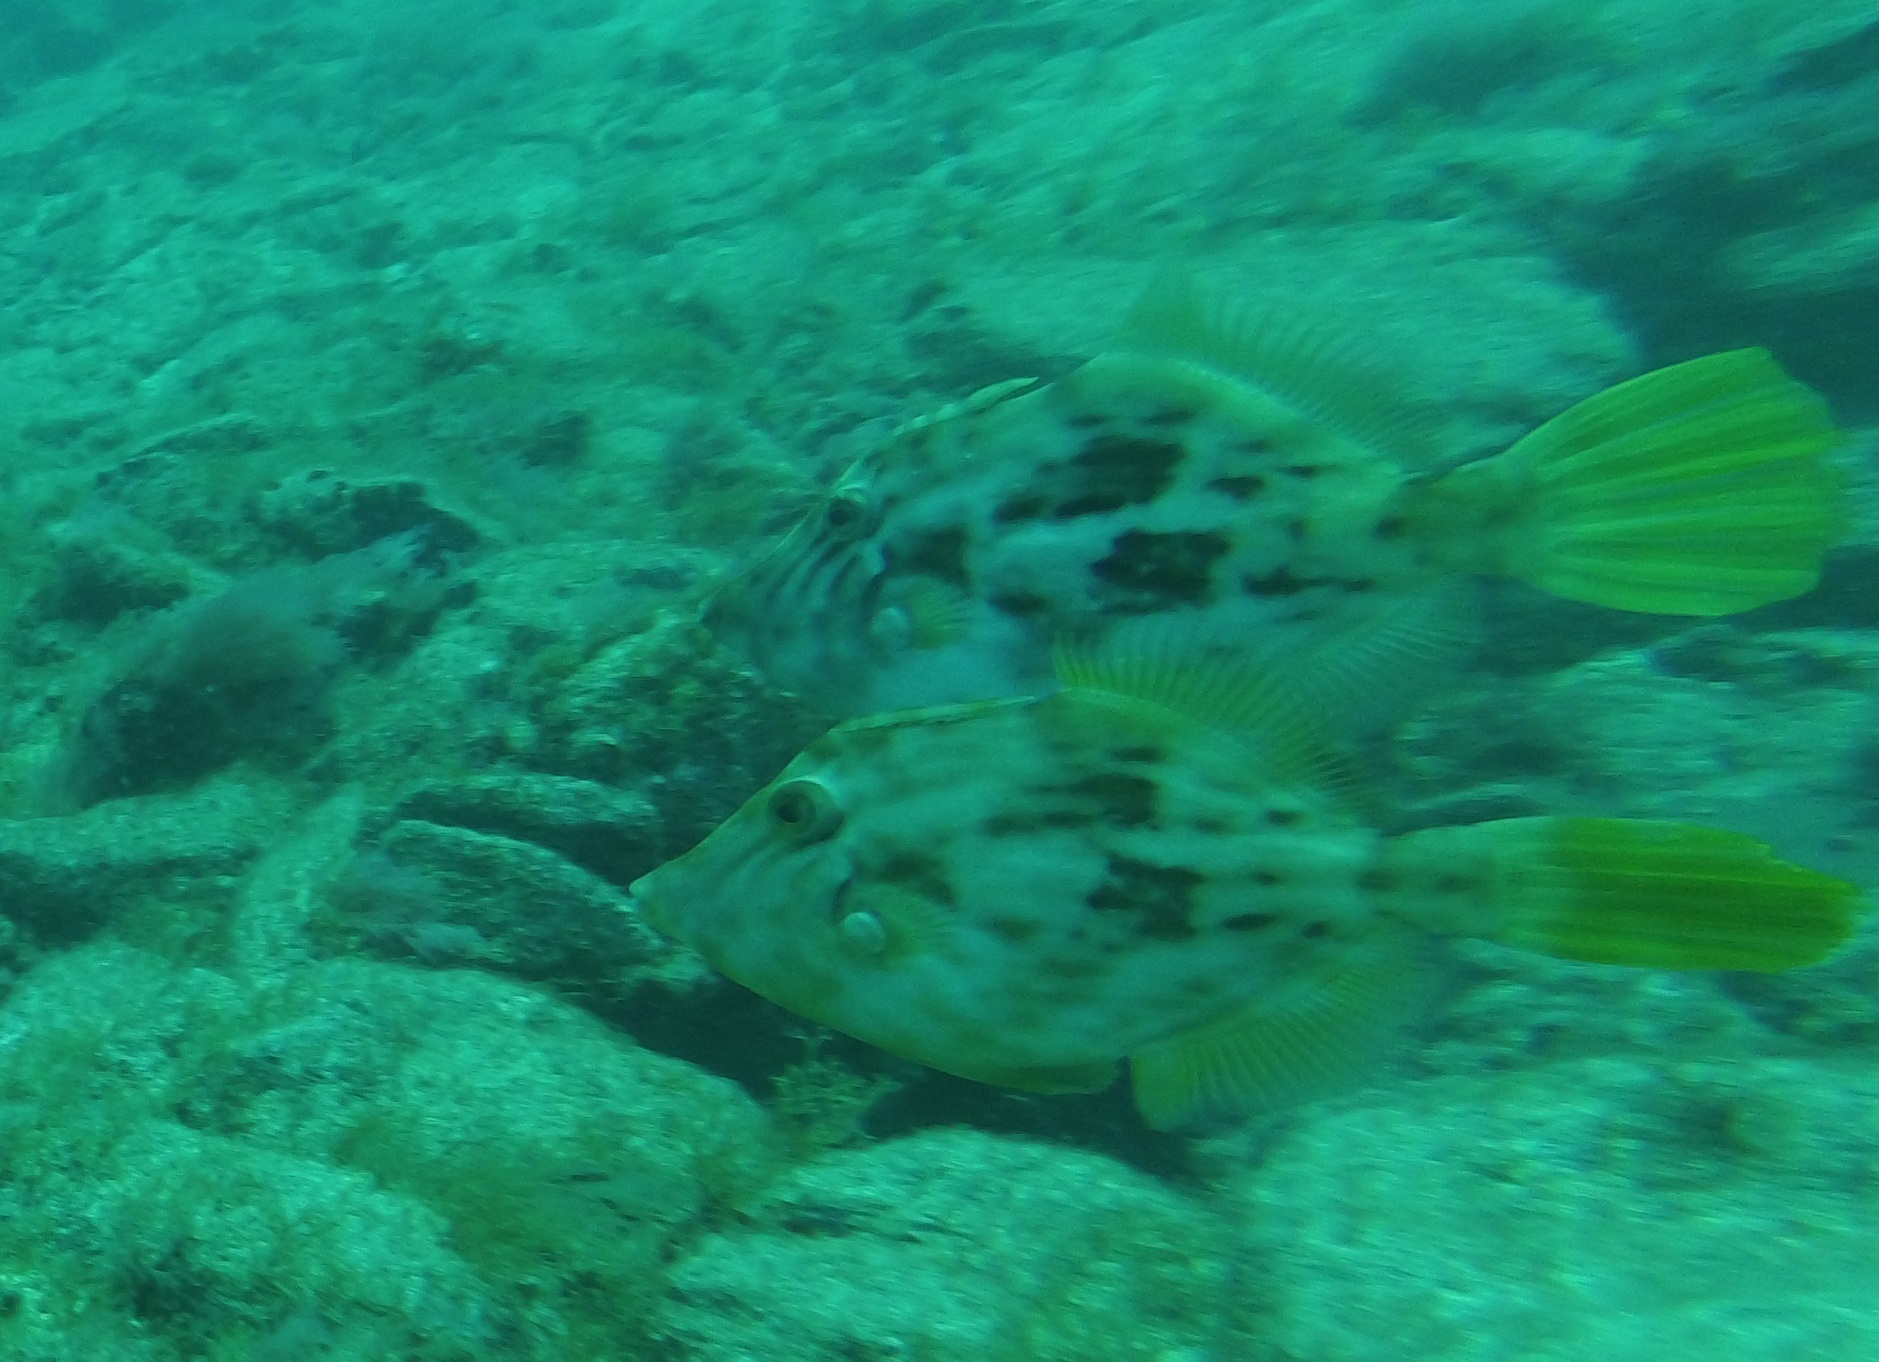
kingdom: Animalia
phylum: Chordata
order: Tetraodontiformes
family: Monacanthidae
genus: Stephanolepis
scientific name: Stephanolepis hispidus
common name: Planehead filefish
